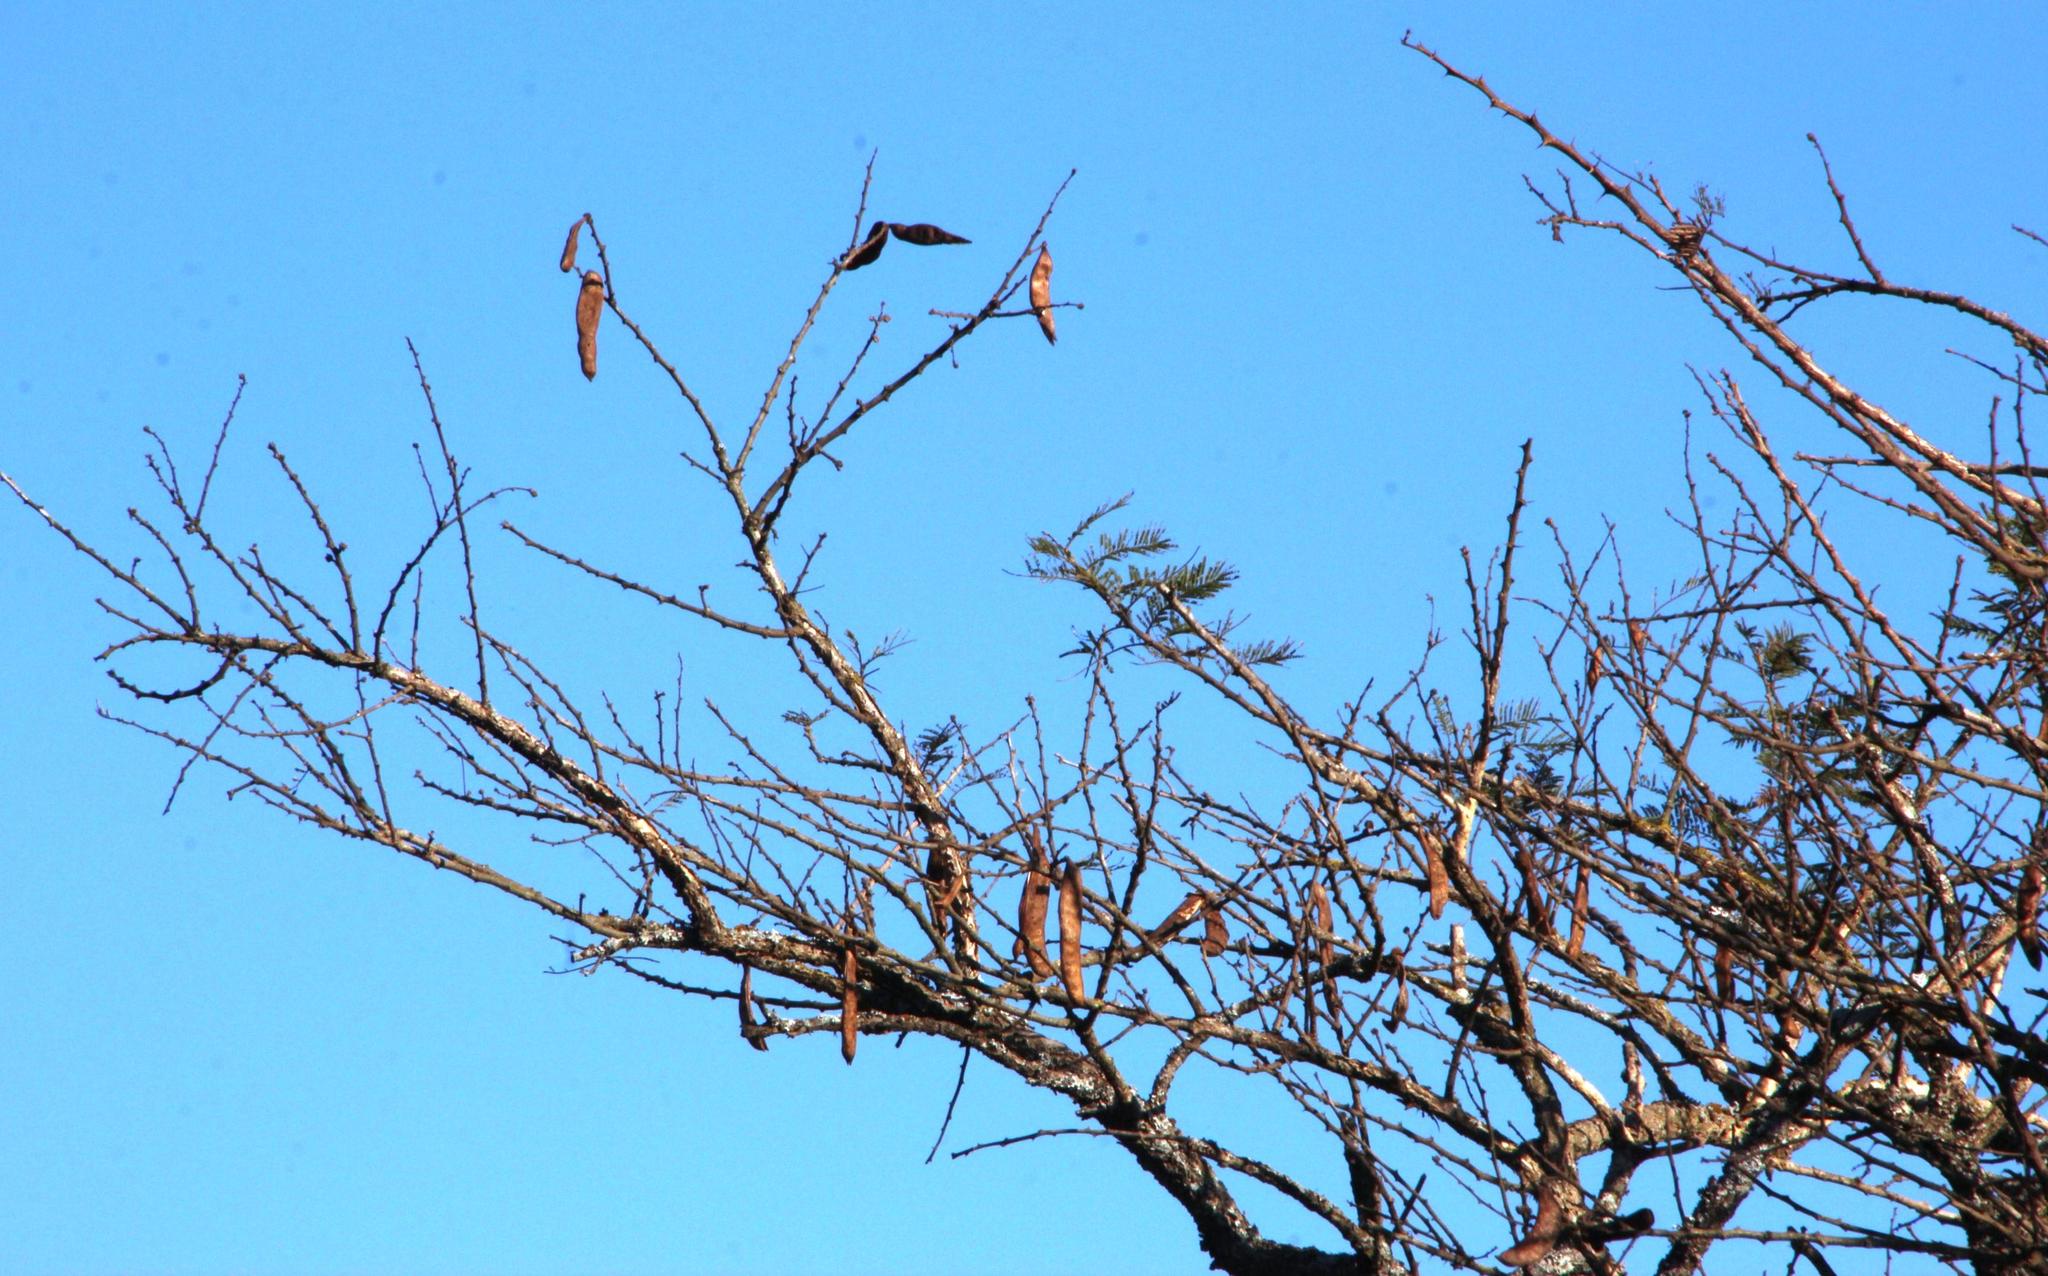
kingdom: Plantae
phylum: Tracheophyta
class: Magnoliopsida
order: Fabales
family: Fabaceae
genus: Vachellia
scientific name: Vachellia sieberiana
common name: Flat-topped thorn
